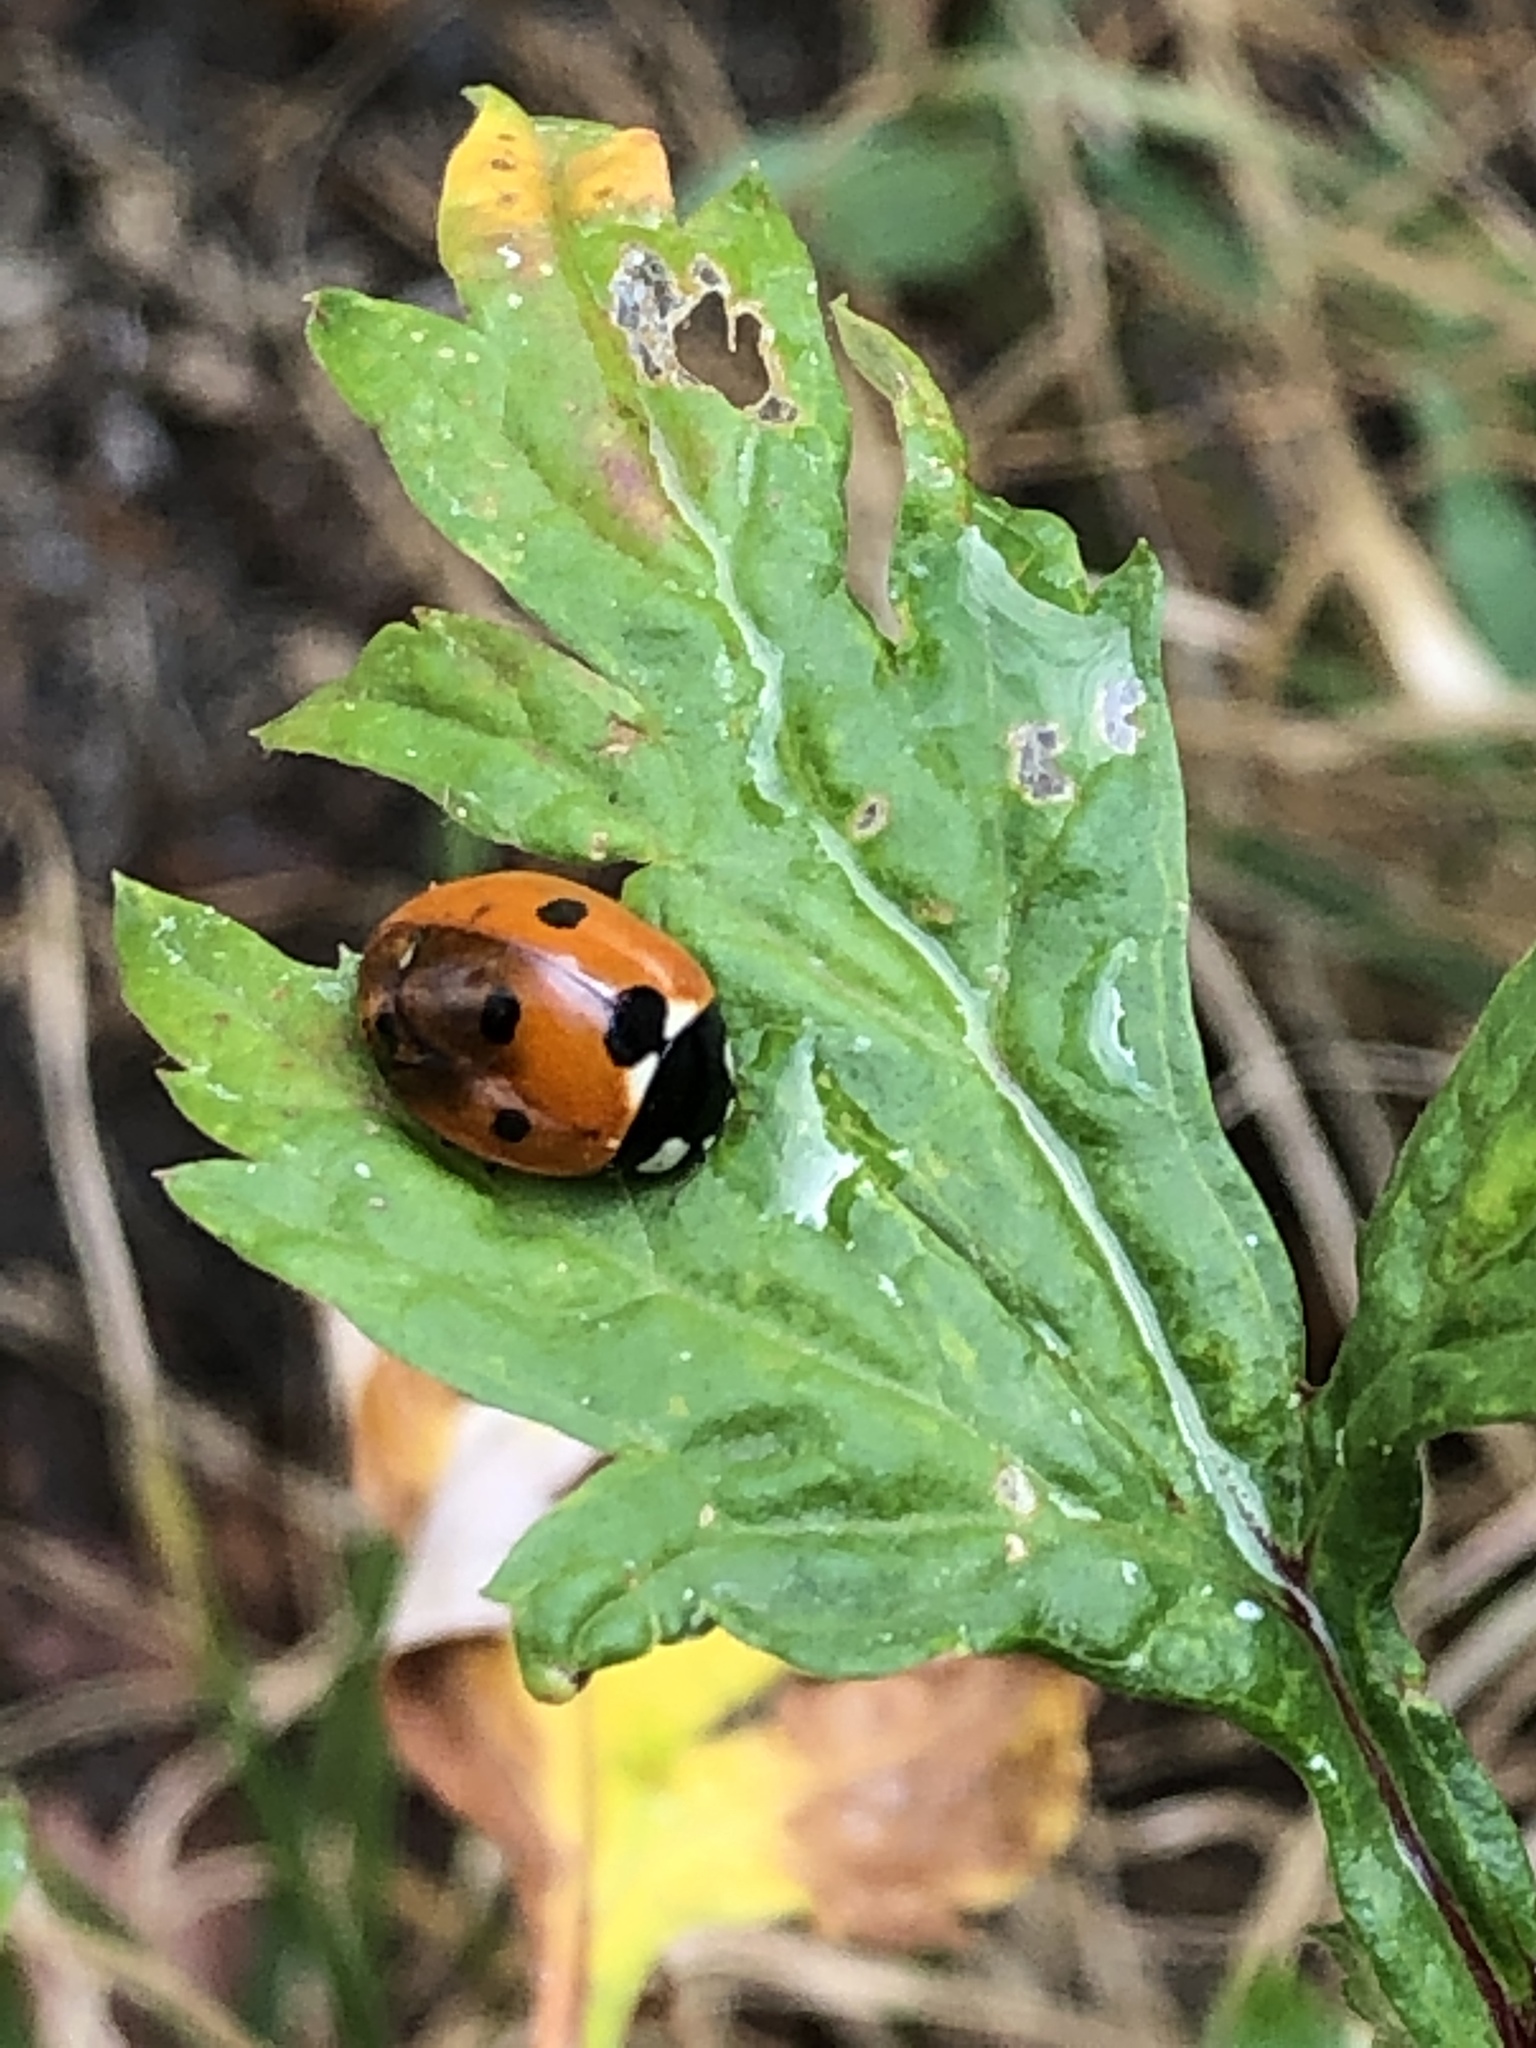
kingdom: Animalia
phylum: Arthropoda
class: Insecta
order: Coleoptera
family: Coccinellidae
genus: Coccinella
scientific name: Coccinella septempunctata
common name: Sevenspotted lady beetle
